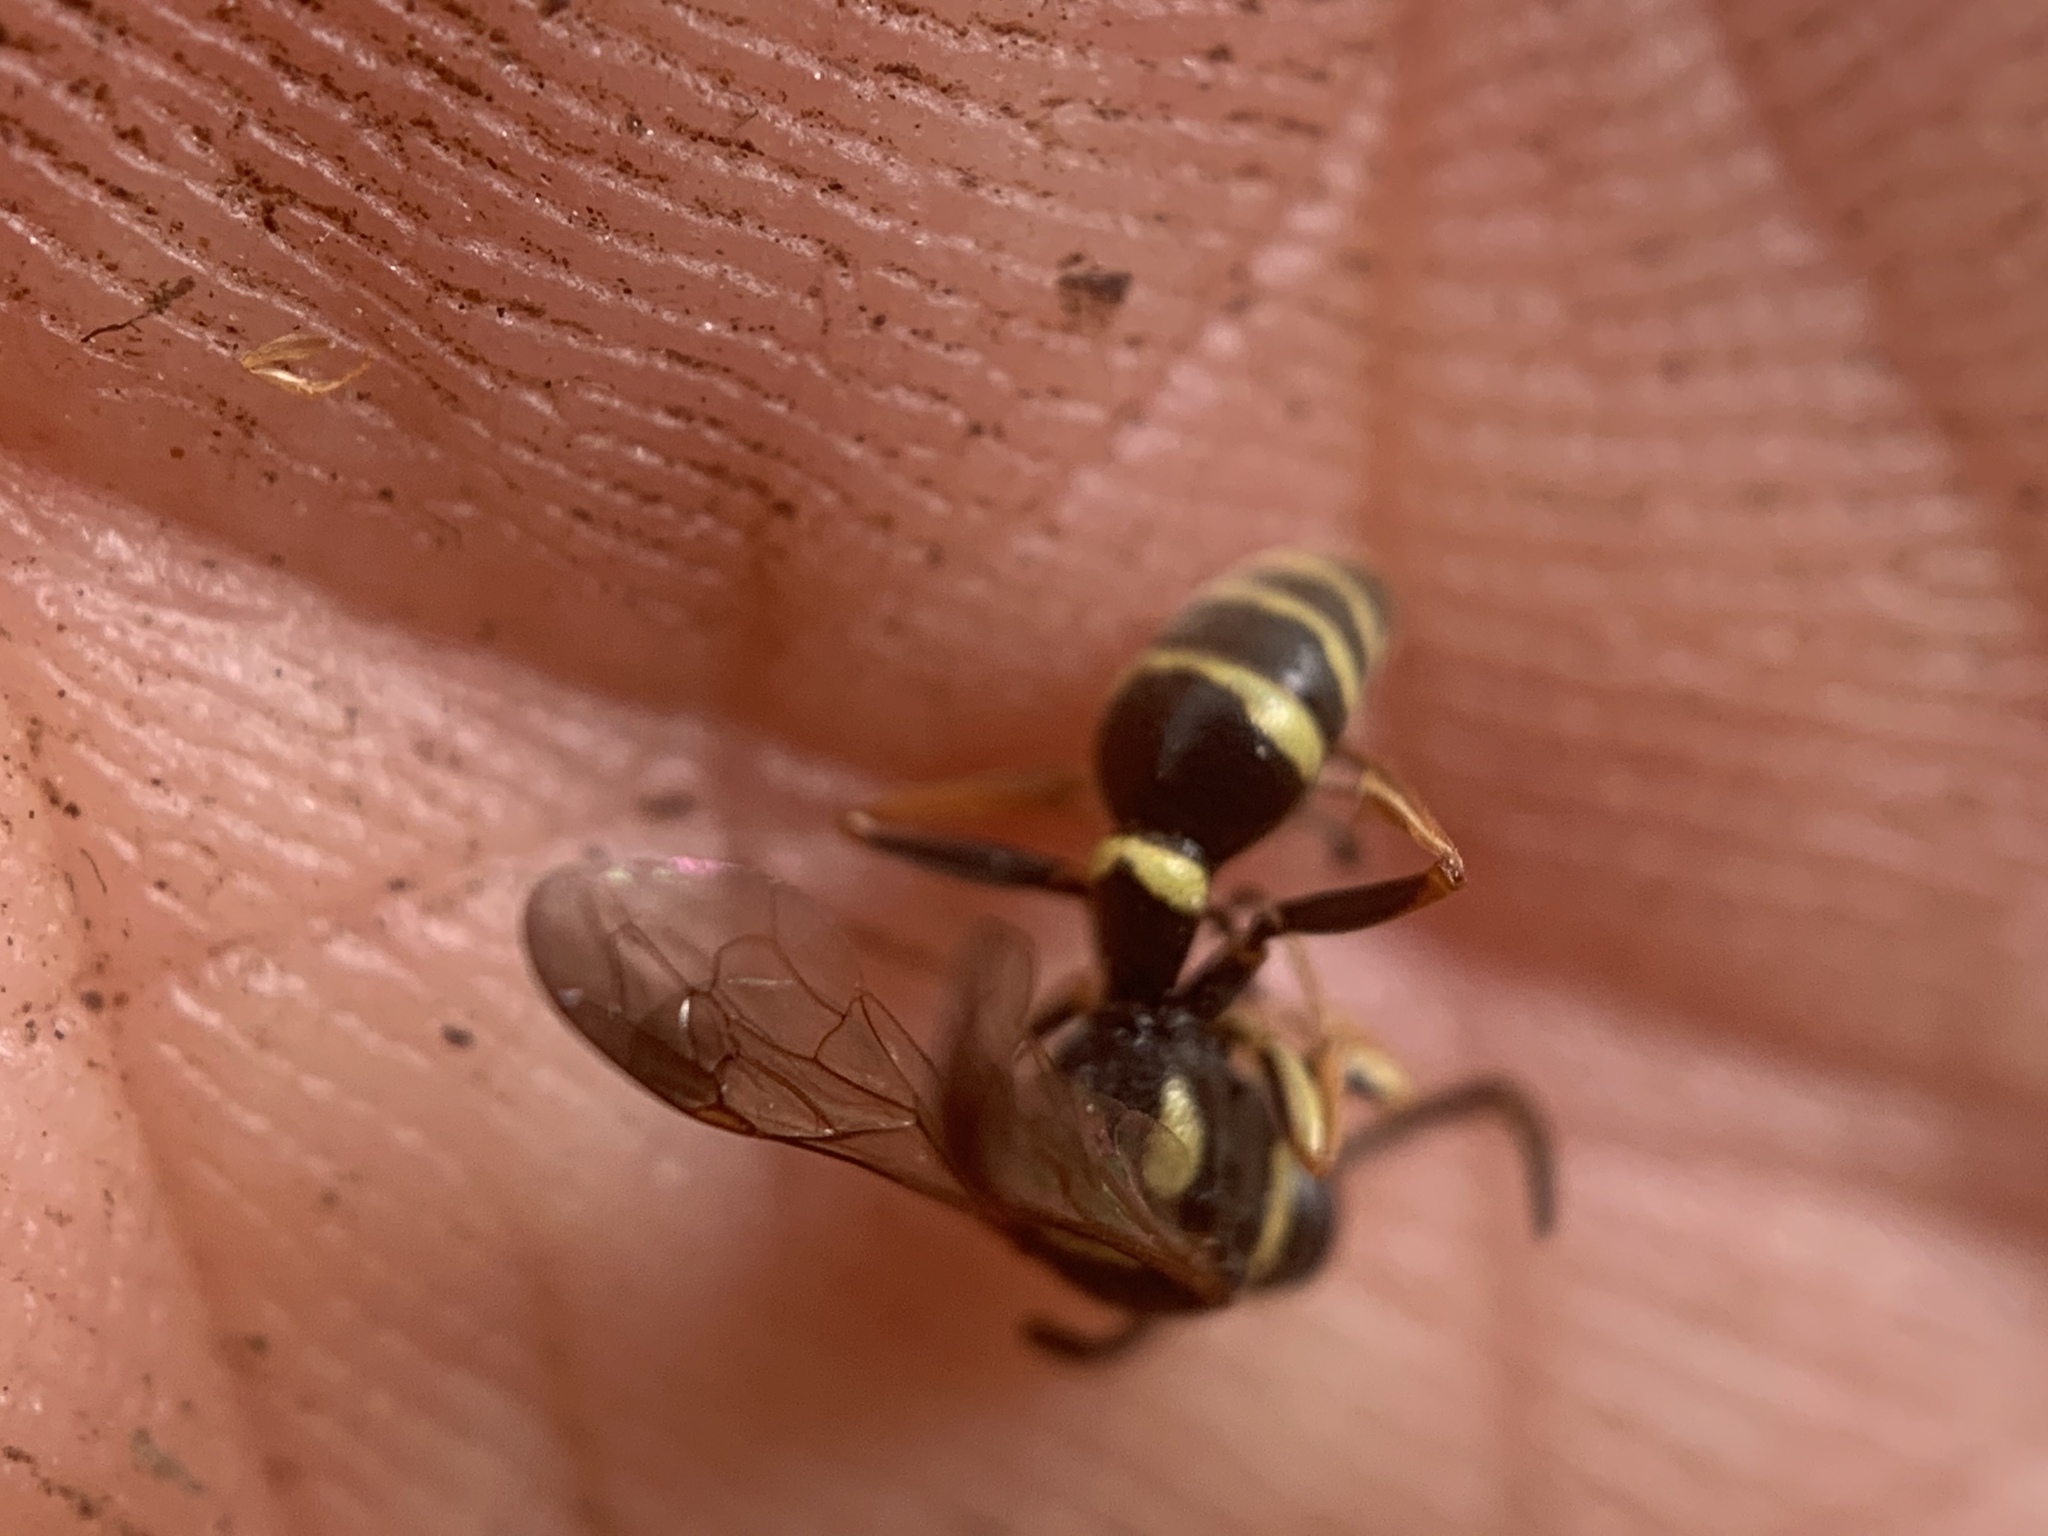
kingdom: Animalia
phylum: Arthropoda
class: Insecta
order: Hymenoptera
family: Crabronidae
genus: Psammaletes
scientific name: Psammaletes mexicanus
